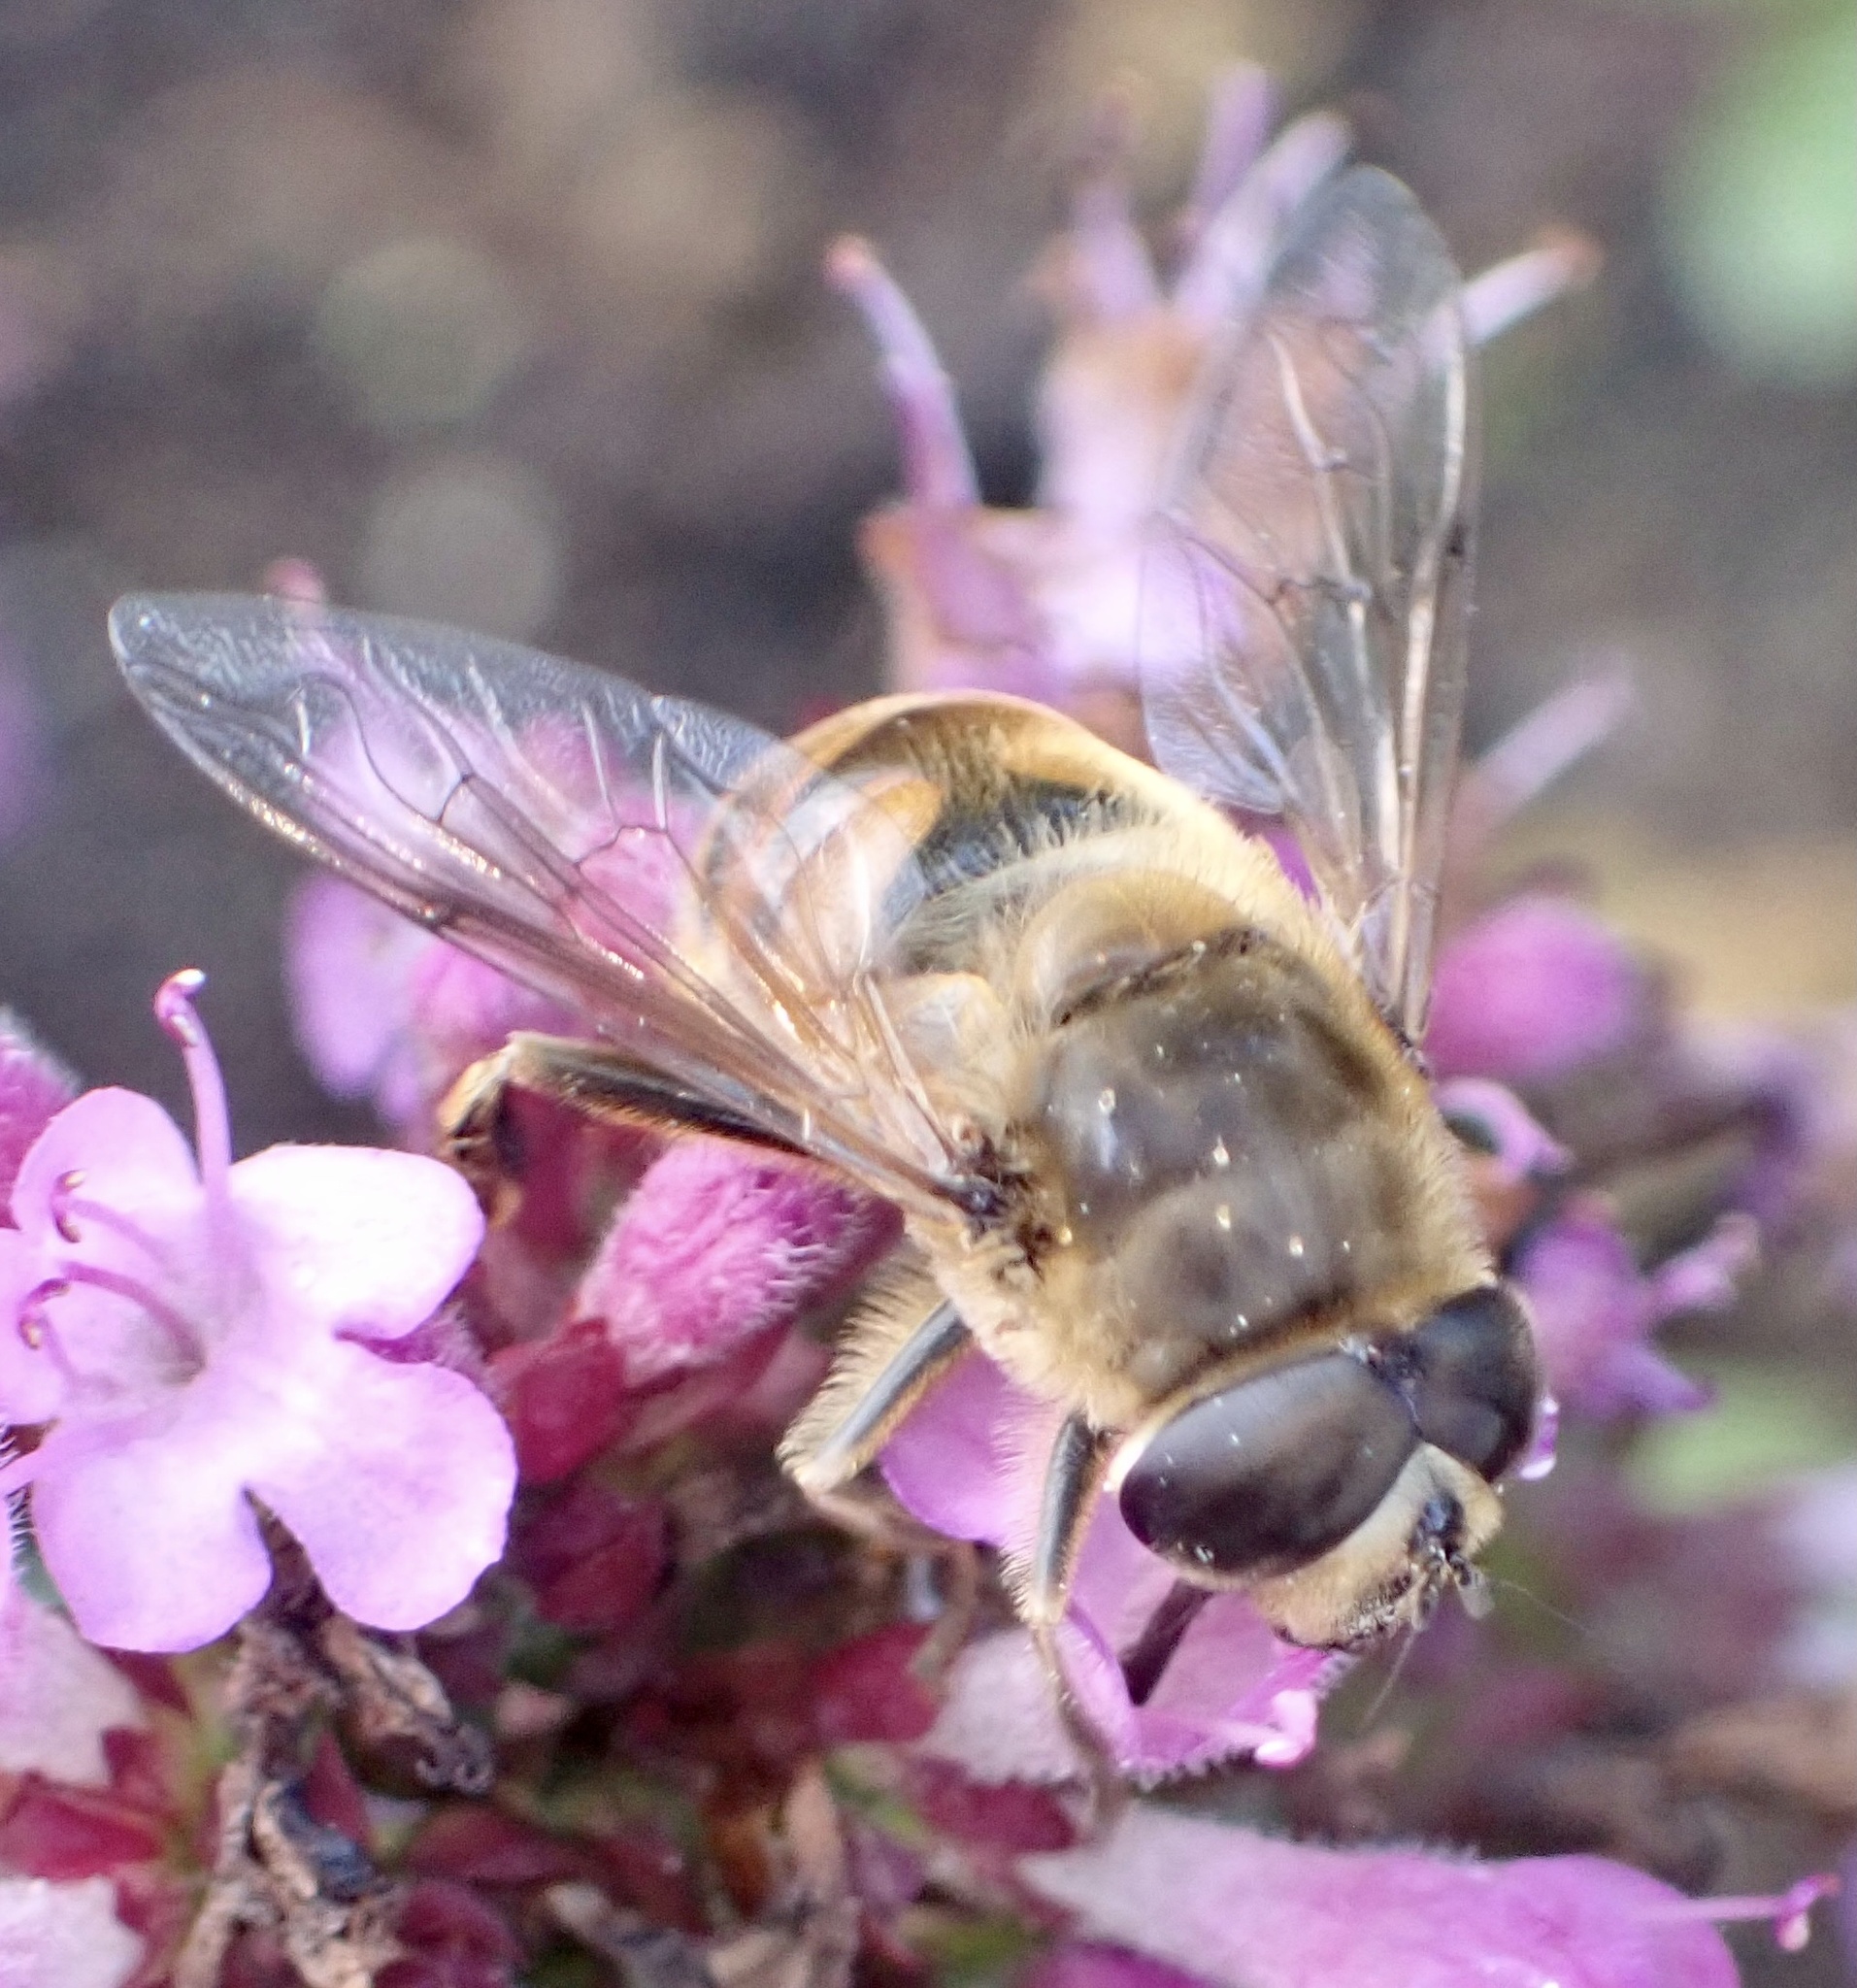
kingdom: Animalia
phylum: Arthropoda
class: Insecta
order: Diptera
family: Syrphidae
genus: Eristalis
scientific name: Eristalis tenax
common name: Drone fly
